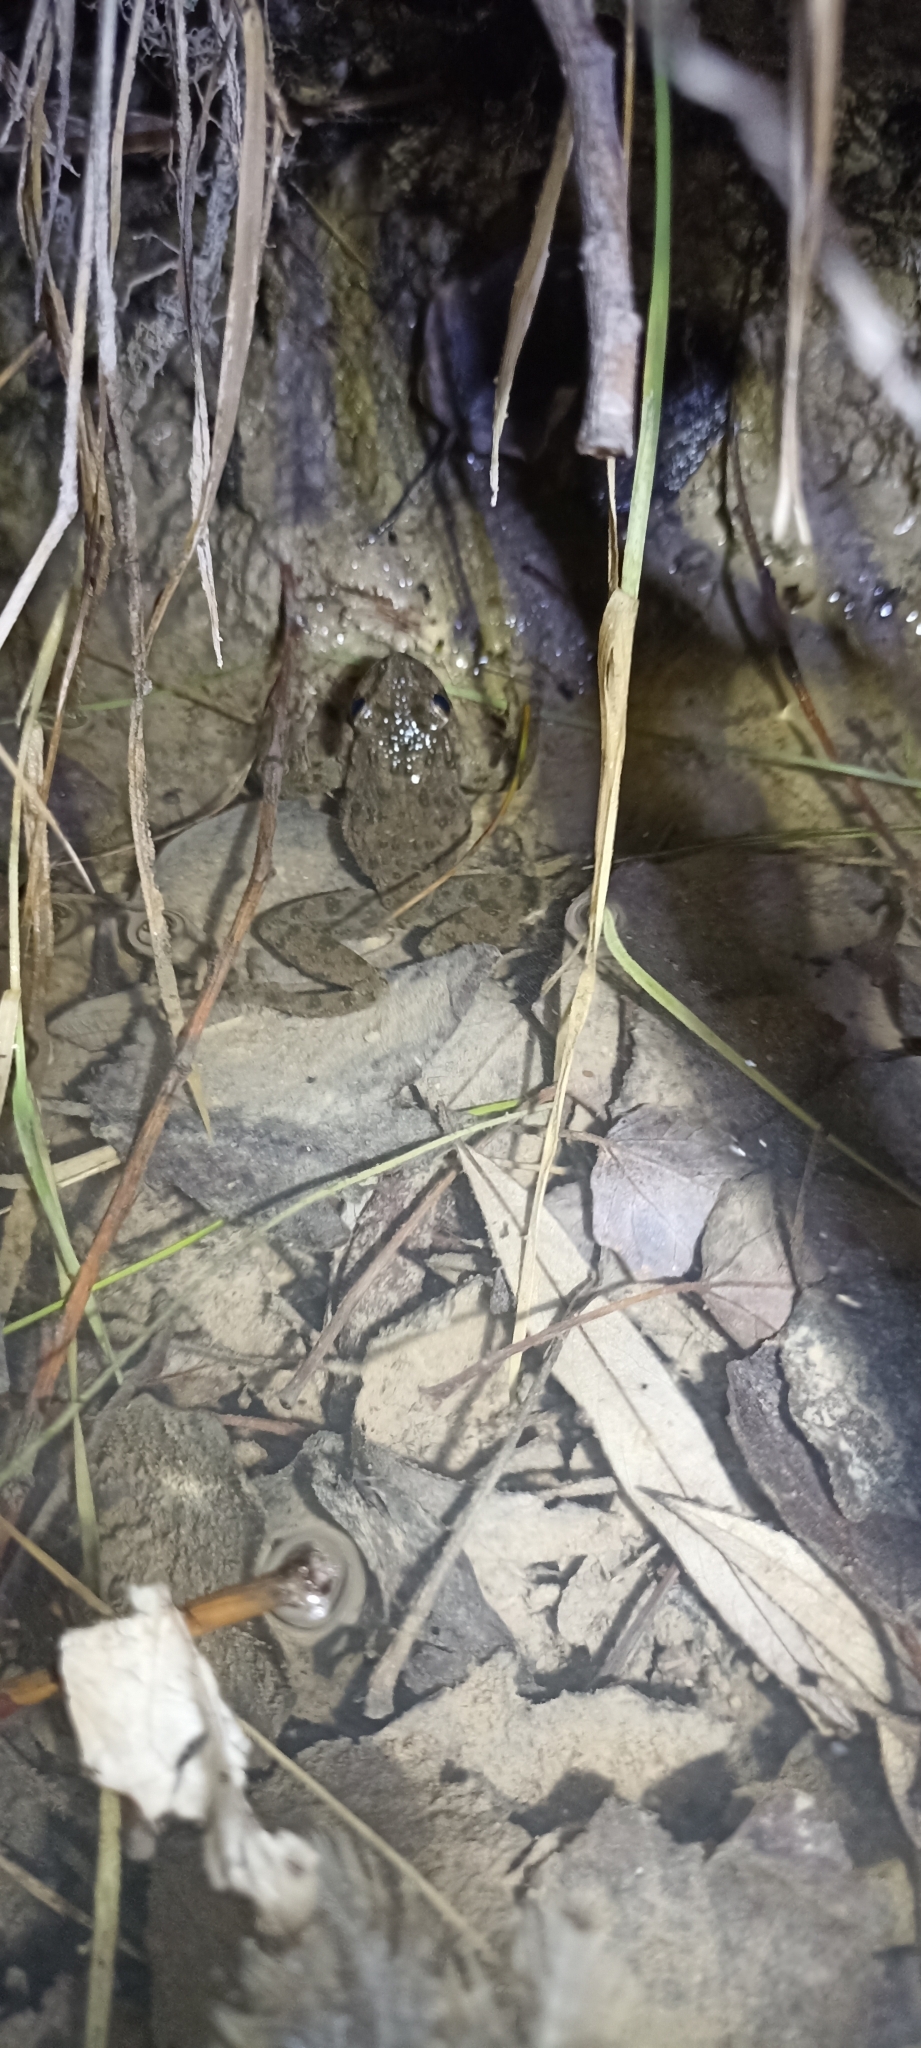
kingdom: Animalia
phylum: Chordata
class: Amphibia
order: Anura
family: Pelodytidae
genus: Pelodytes
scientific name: Pelodytes punctatus
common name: Parsley frog
